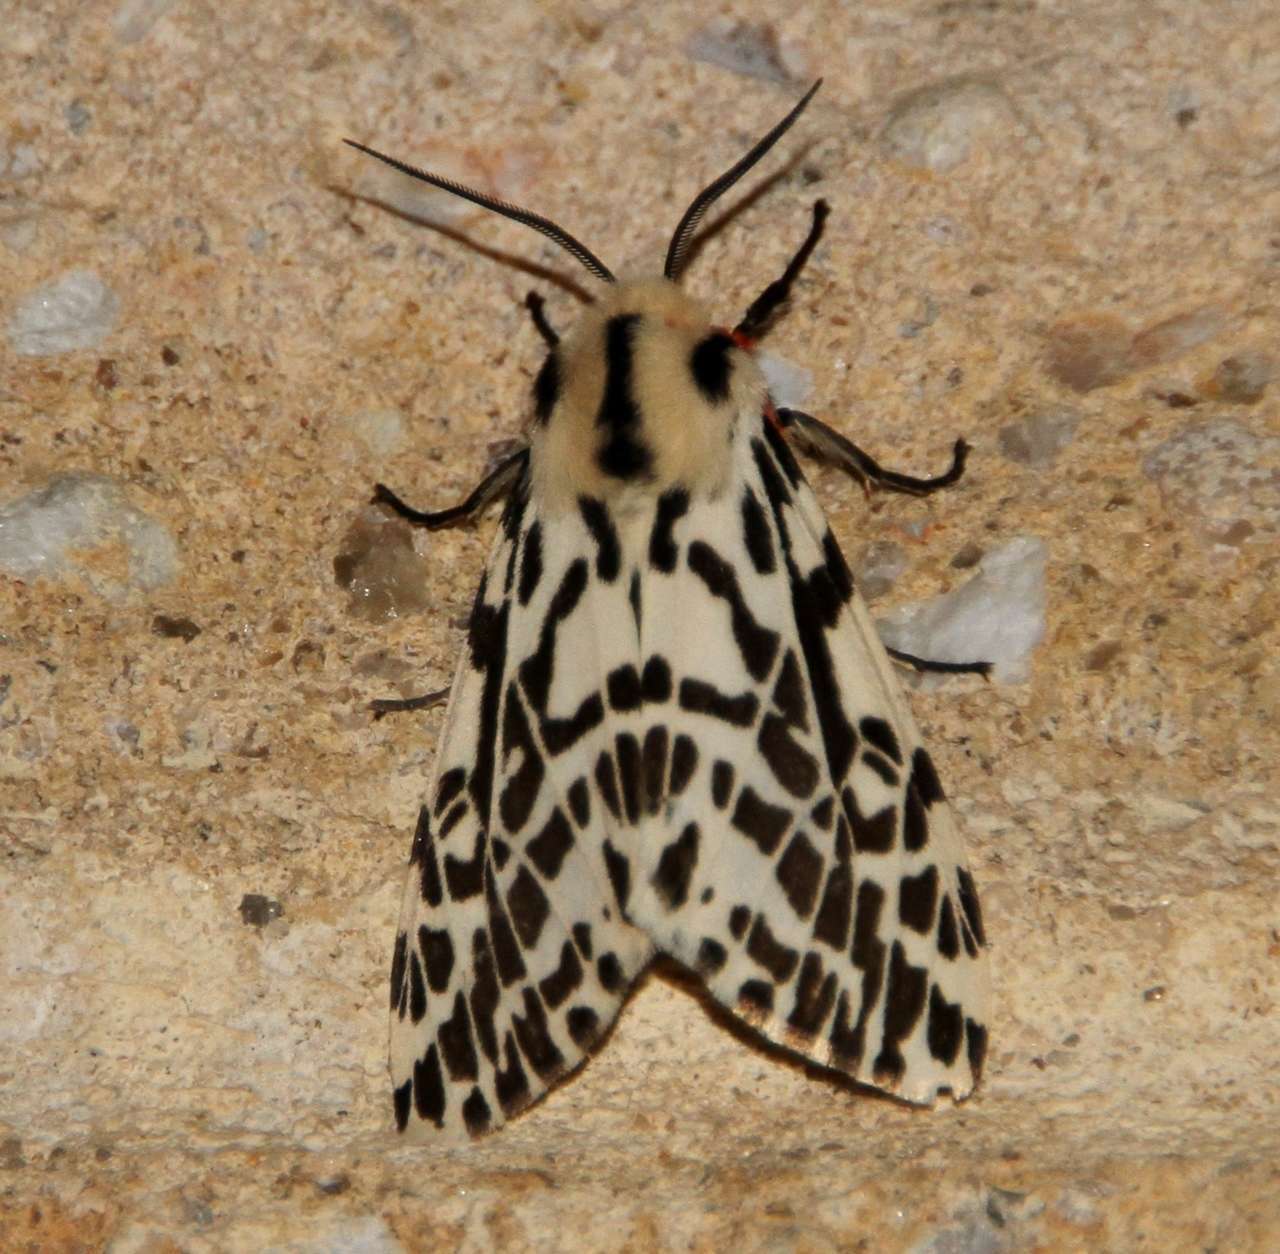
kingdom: Animalia
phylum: Arthropoda
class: Insecta
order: Lepidoptera
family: Erebidae
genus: Ardices
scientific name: Ardices glatignyi
